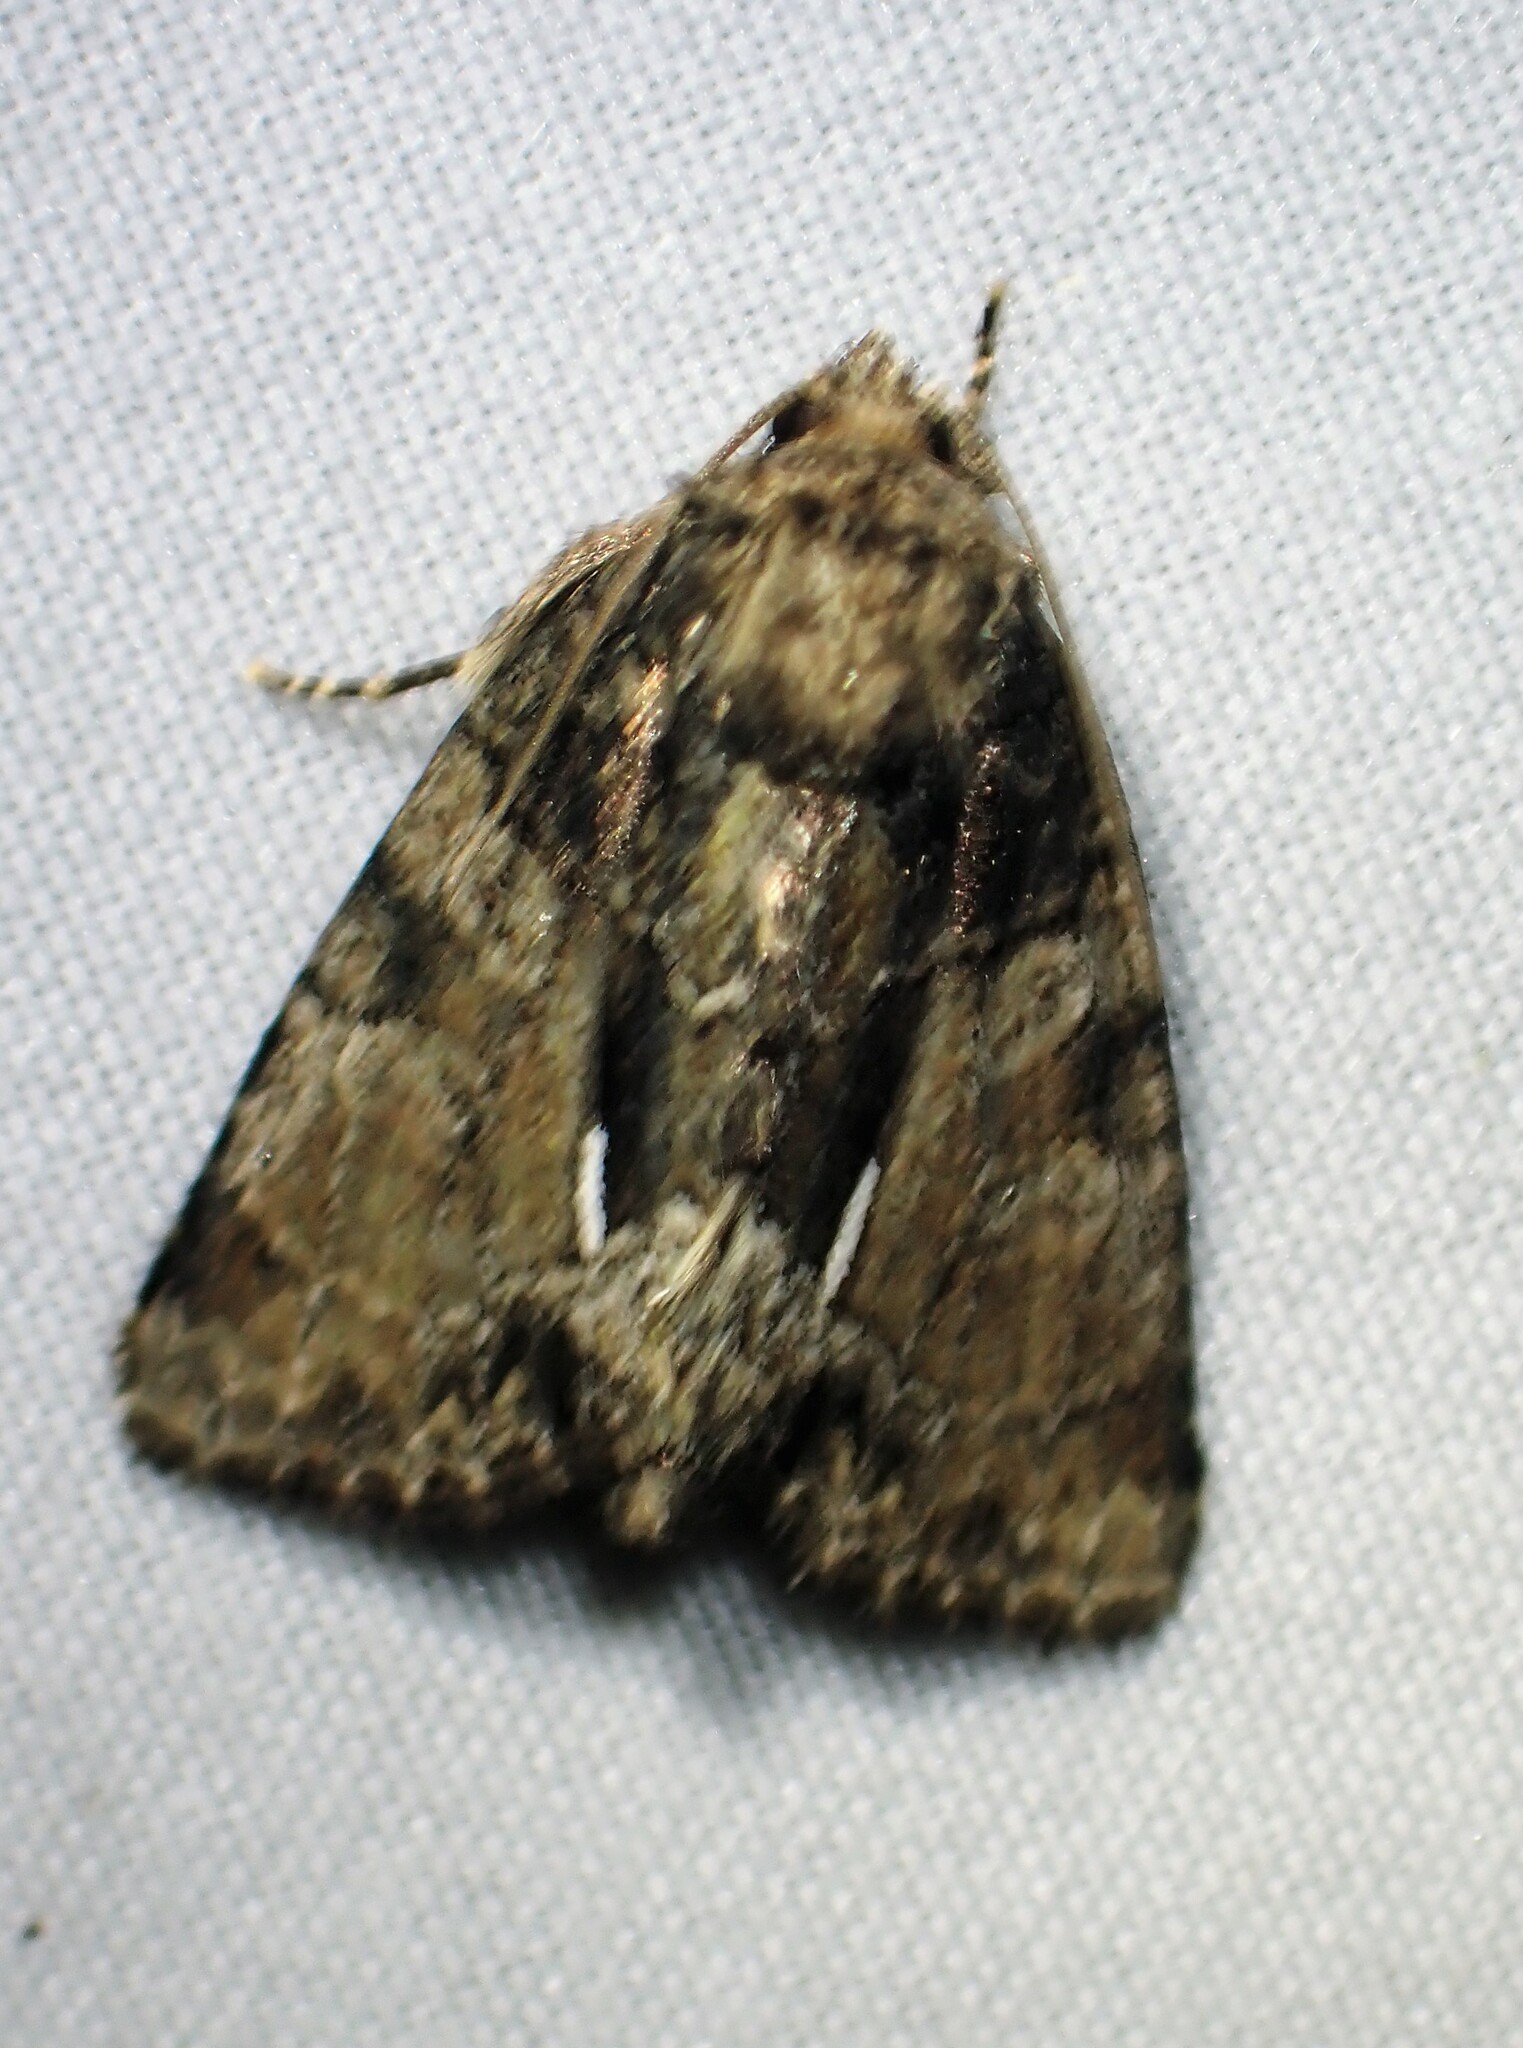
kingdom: Animalia
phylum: Arthropoda
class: Insecta
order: Lepidoptera
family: Noctuidae
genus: Chytonix
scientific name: Chytonix palliatricula
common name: Cloaked marvel
